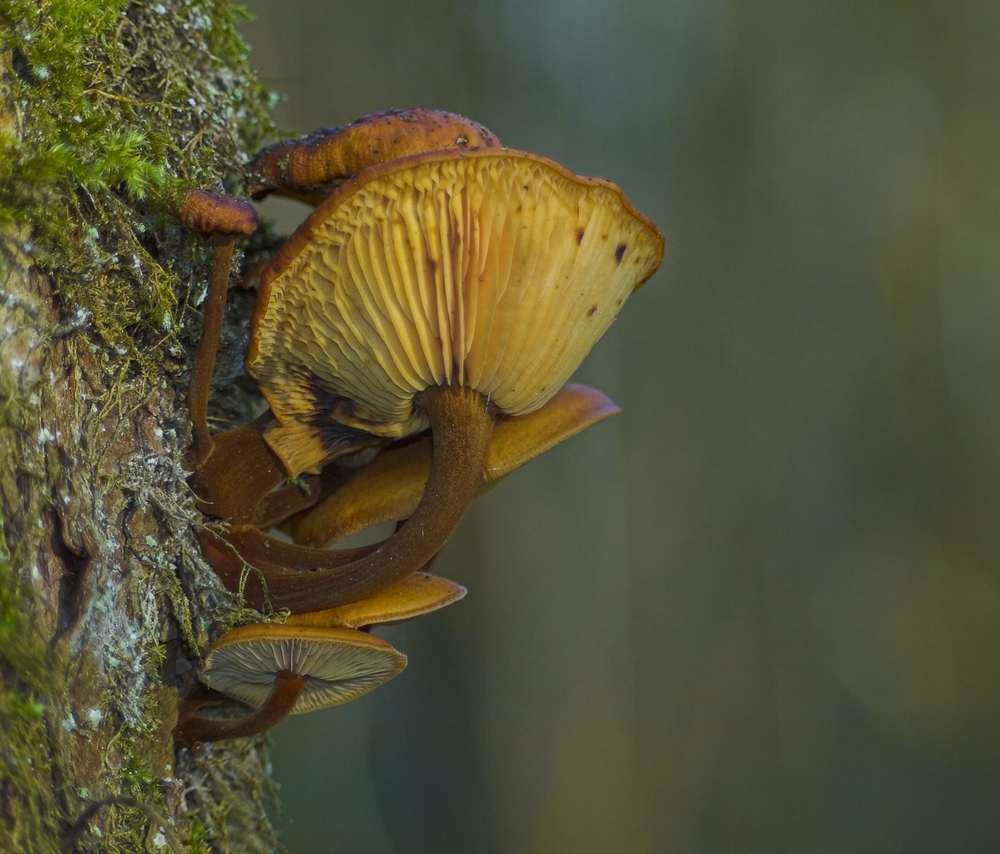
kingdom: Fungi
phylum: Basidiomycota
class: Agaricomycetes
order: Agaricales
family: Physalacriaceae
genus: Flammulina
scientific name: Flammulina
